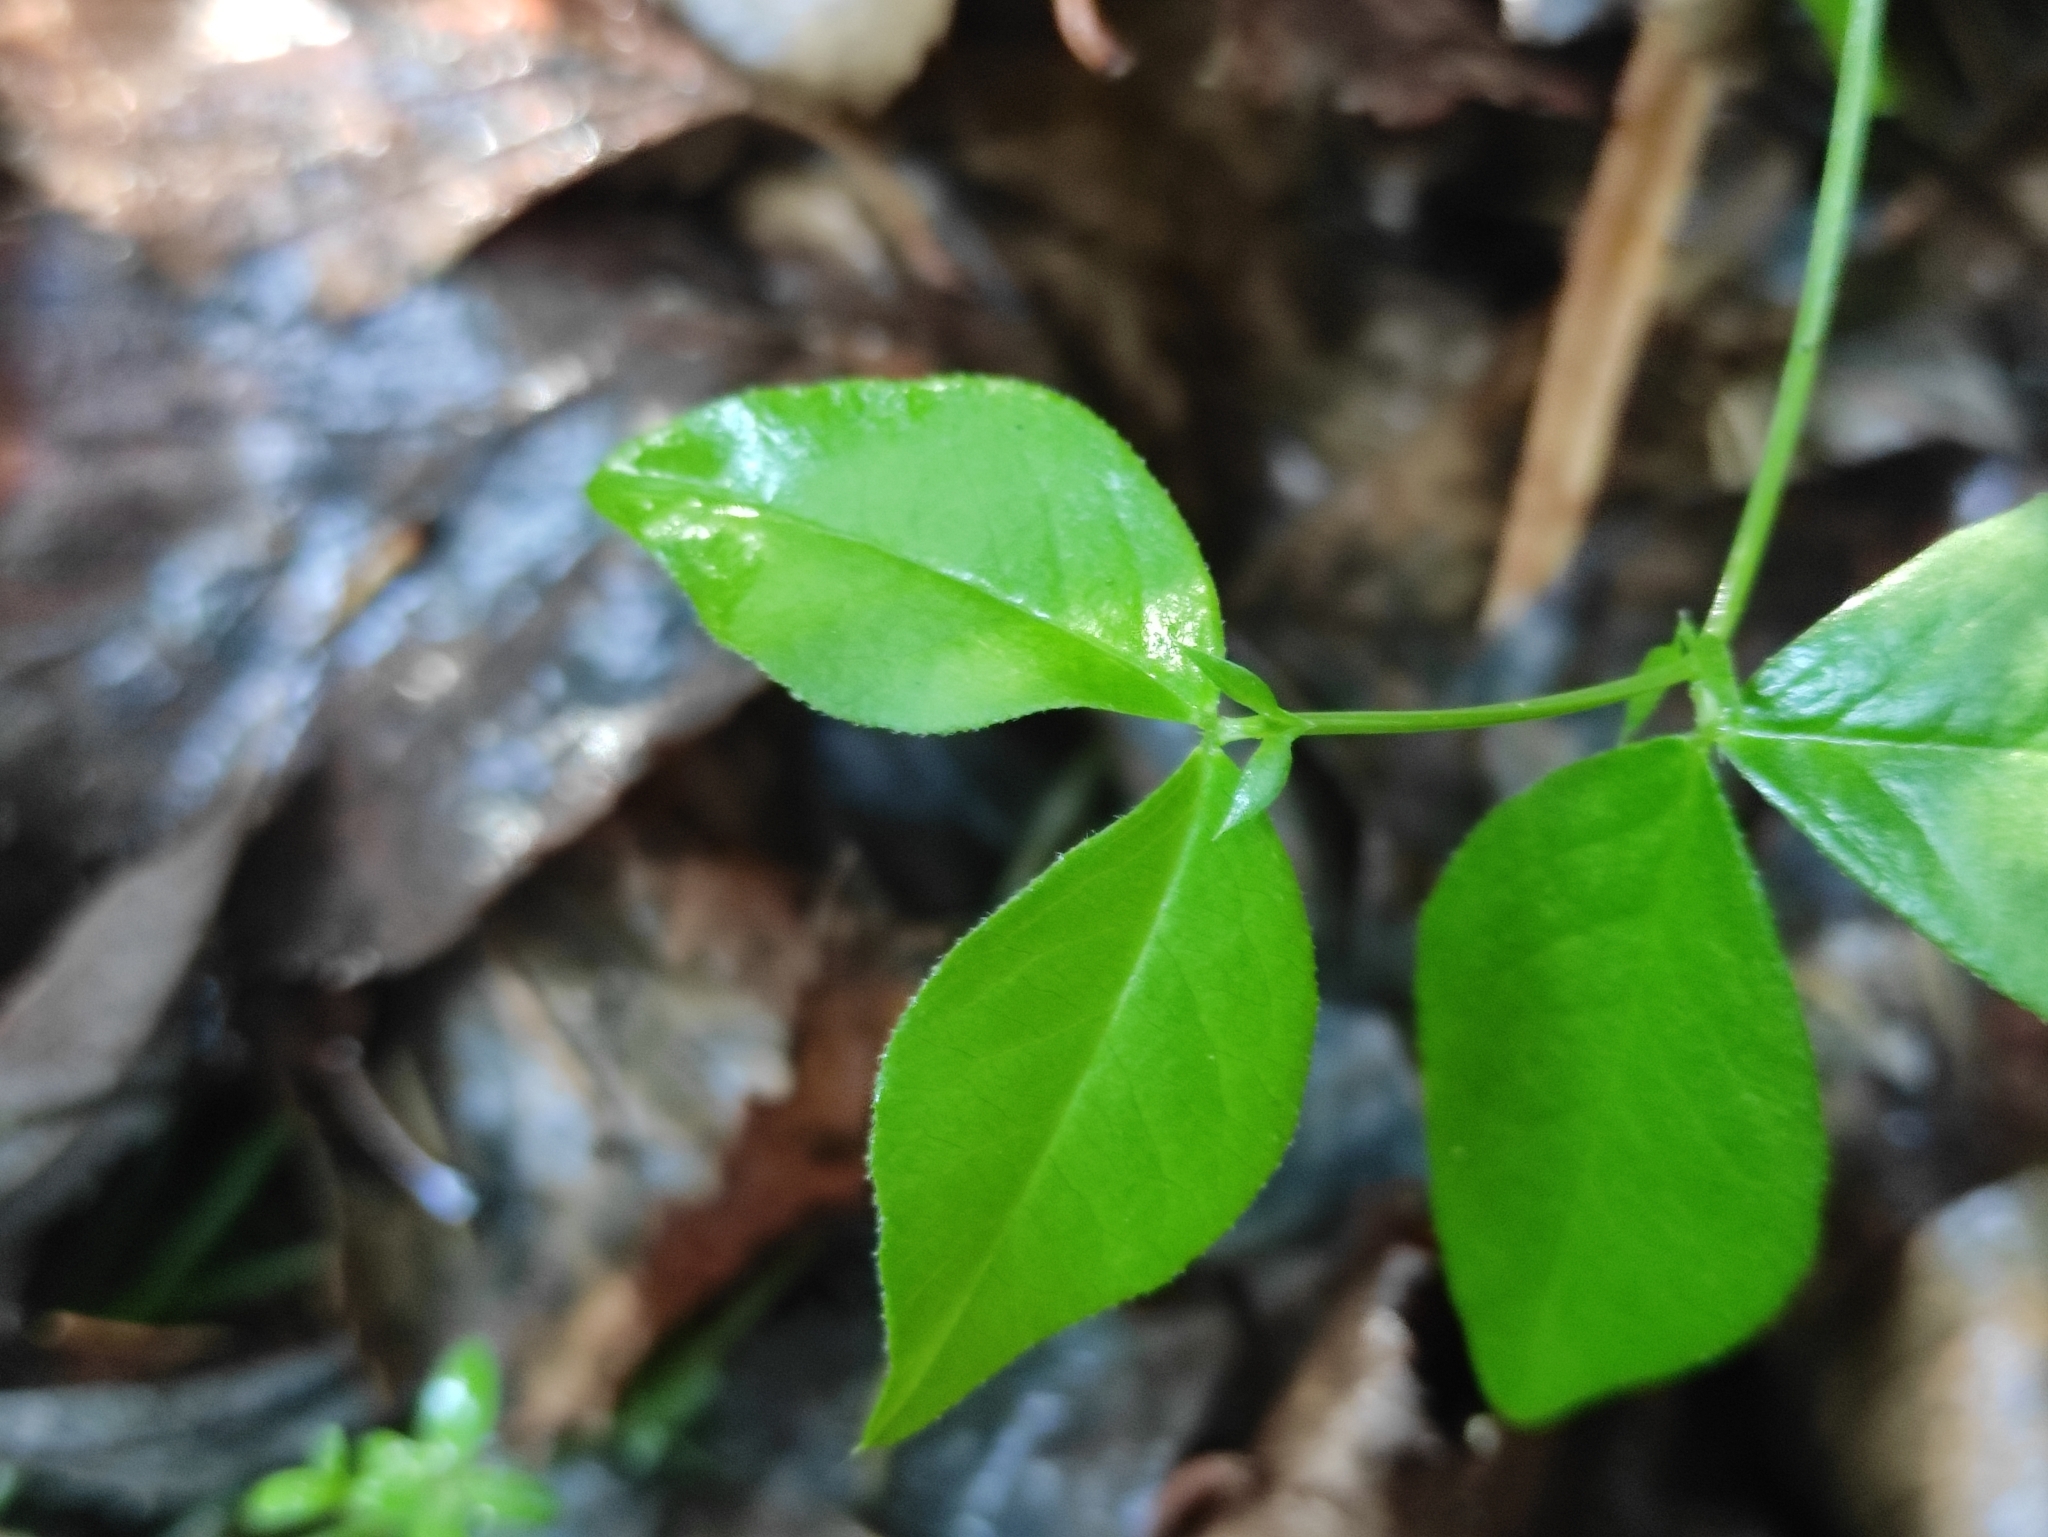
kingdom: Plantae
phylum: Tracheophyta
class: Magnoliopsida
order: Fabales
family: Fabaceae
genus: Vicia
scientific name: Vicia unijuga
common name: Two-leaf vetch
